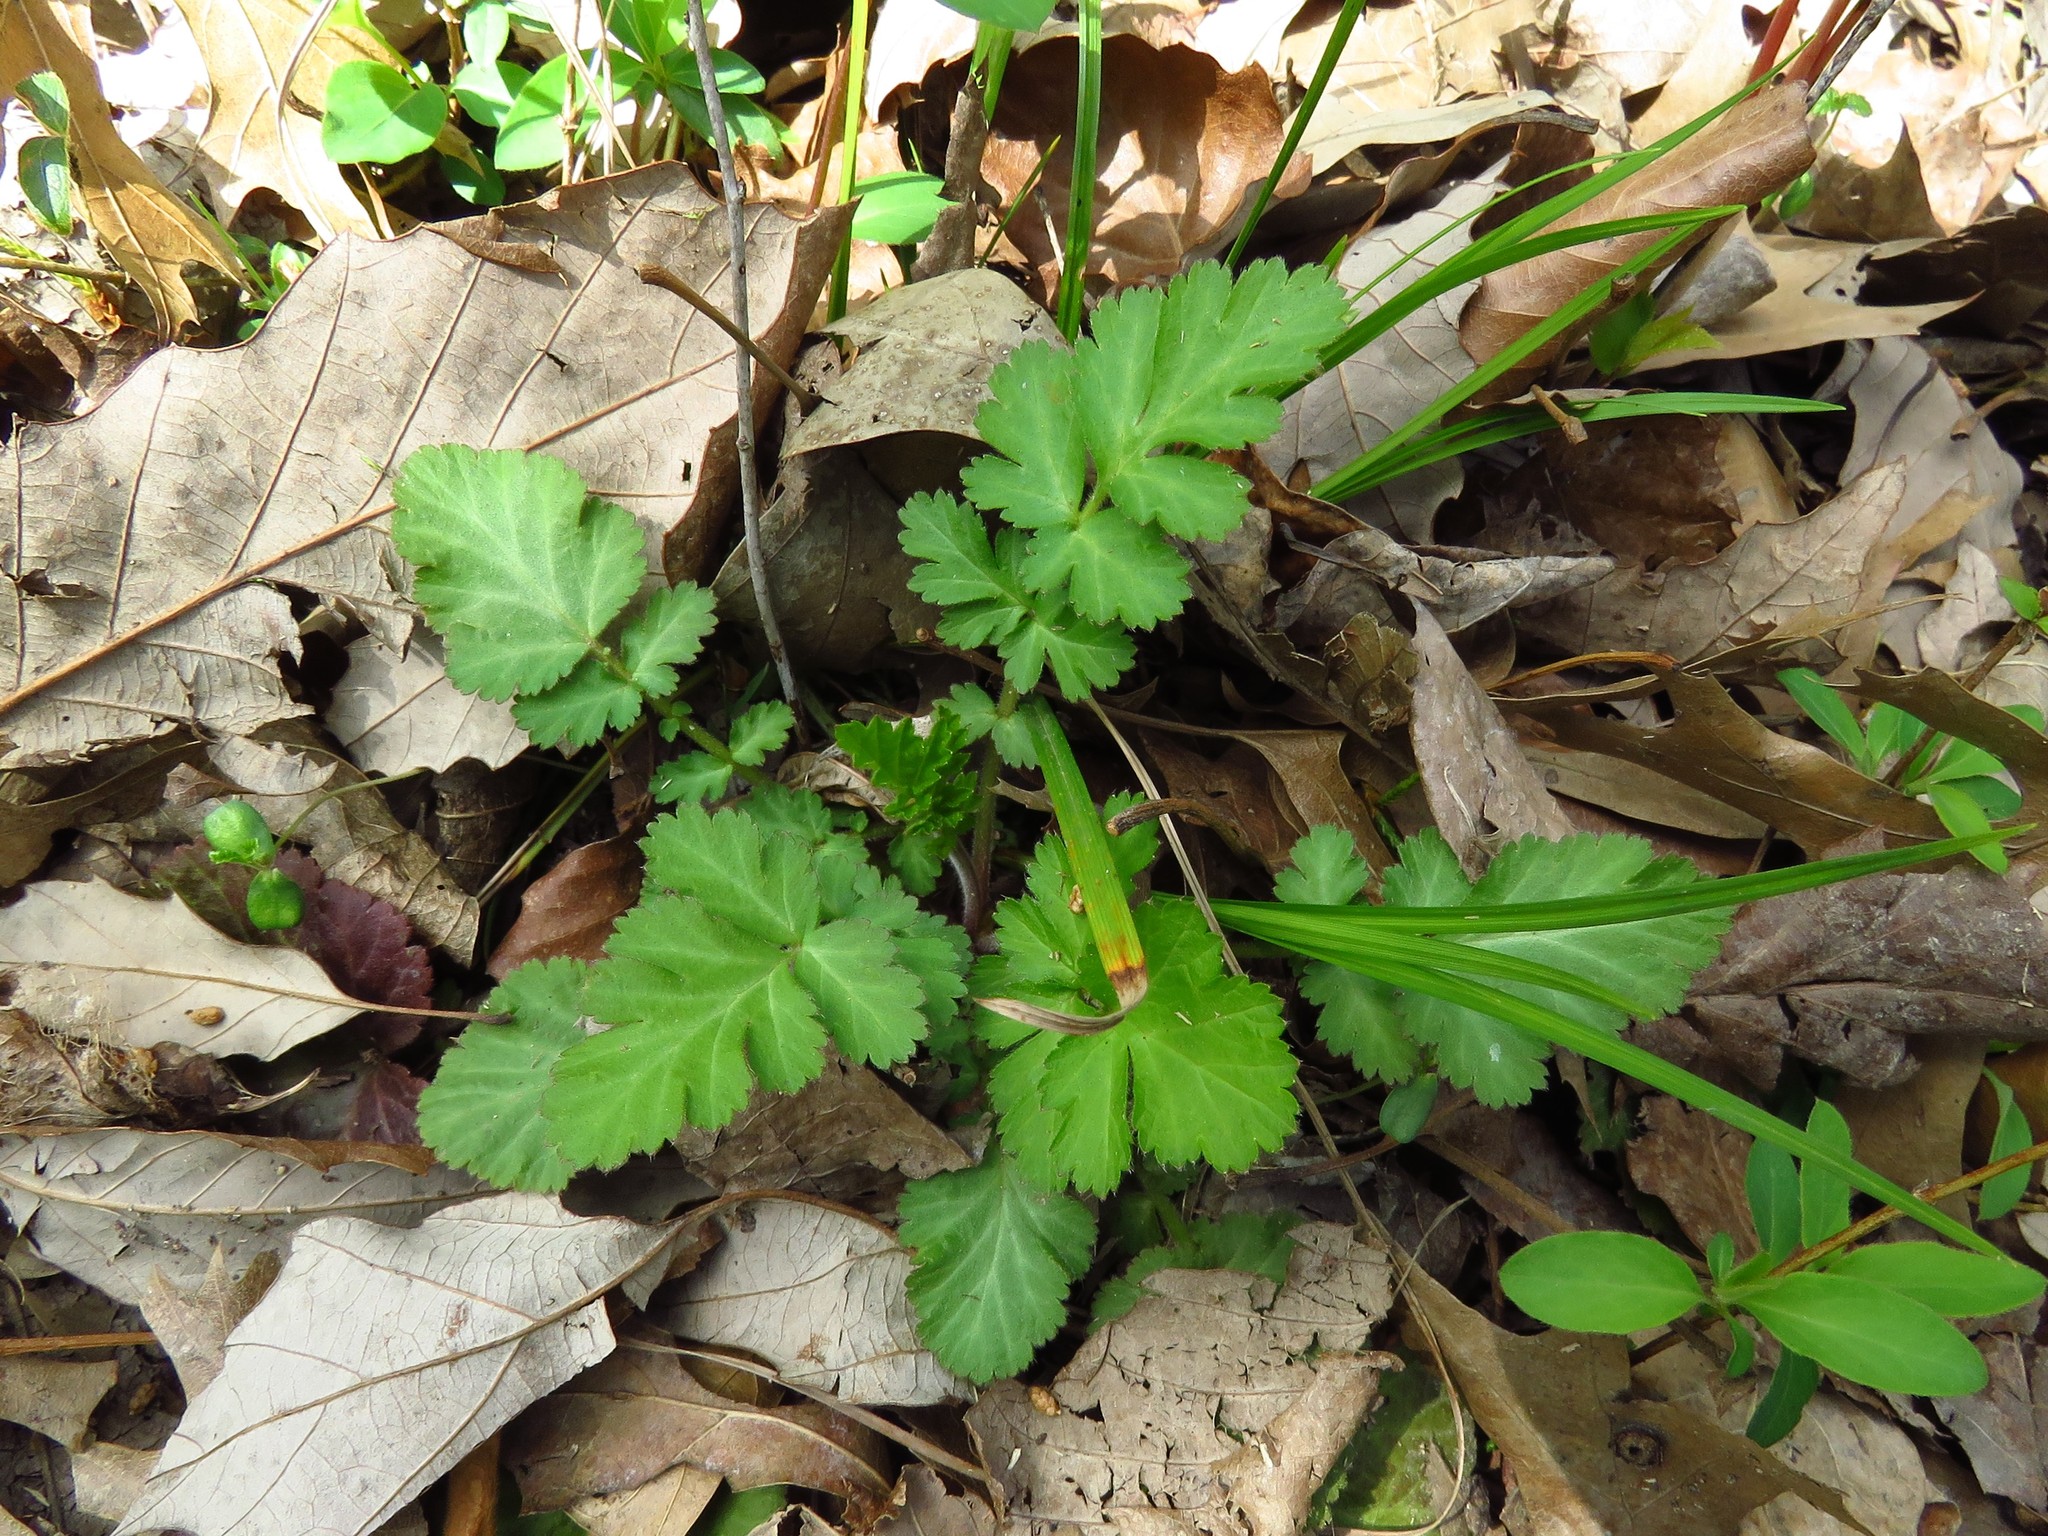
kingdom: Plantae
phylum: Tracheophyta
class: Magnoliopsida
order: Rosales
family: Rosaceae
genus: Geum
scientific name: Geum canadense
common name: White avens
